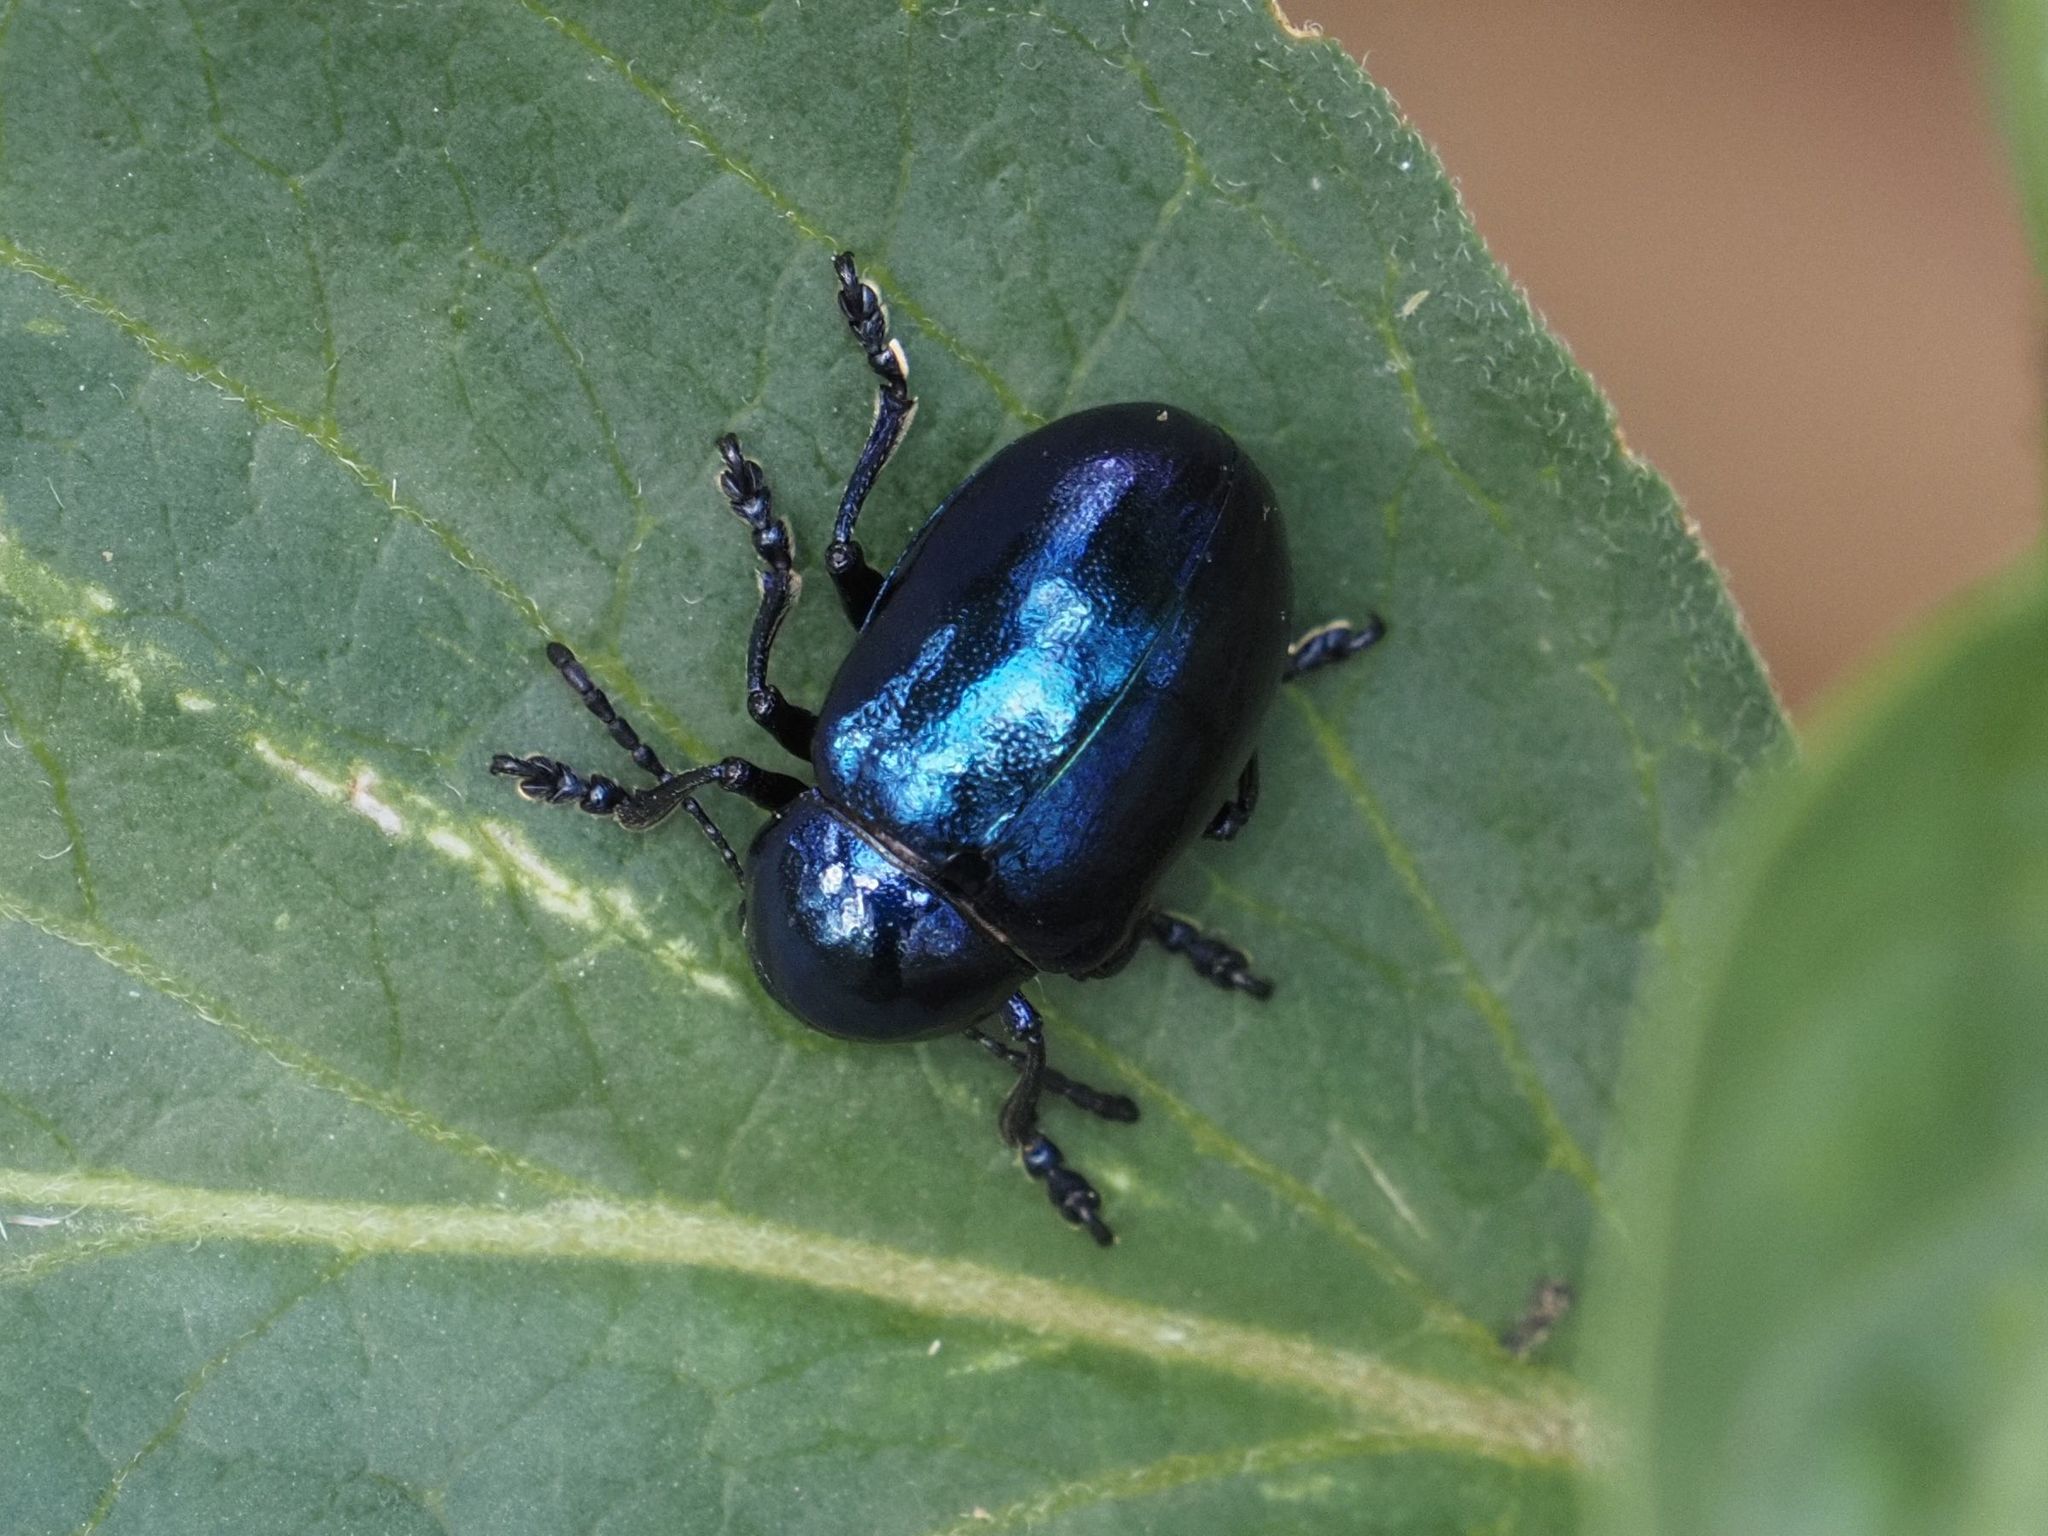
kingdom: Animalia
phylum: Arthropoda
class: Insecta
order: Coleoptera
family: Chrysomelidae
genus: Chrysochus
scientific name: Chrysochus asclepiadeus
